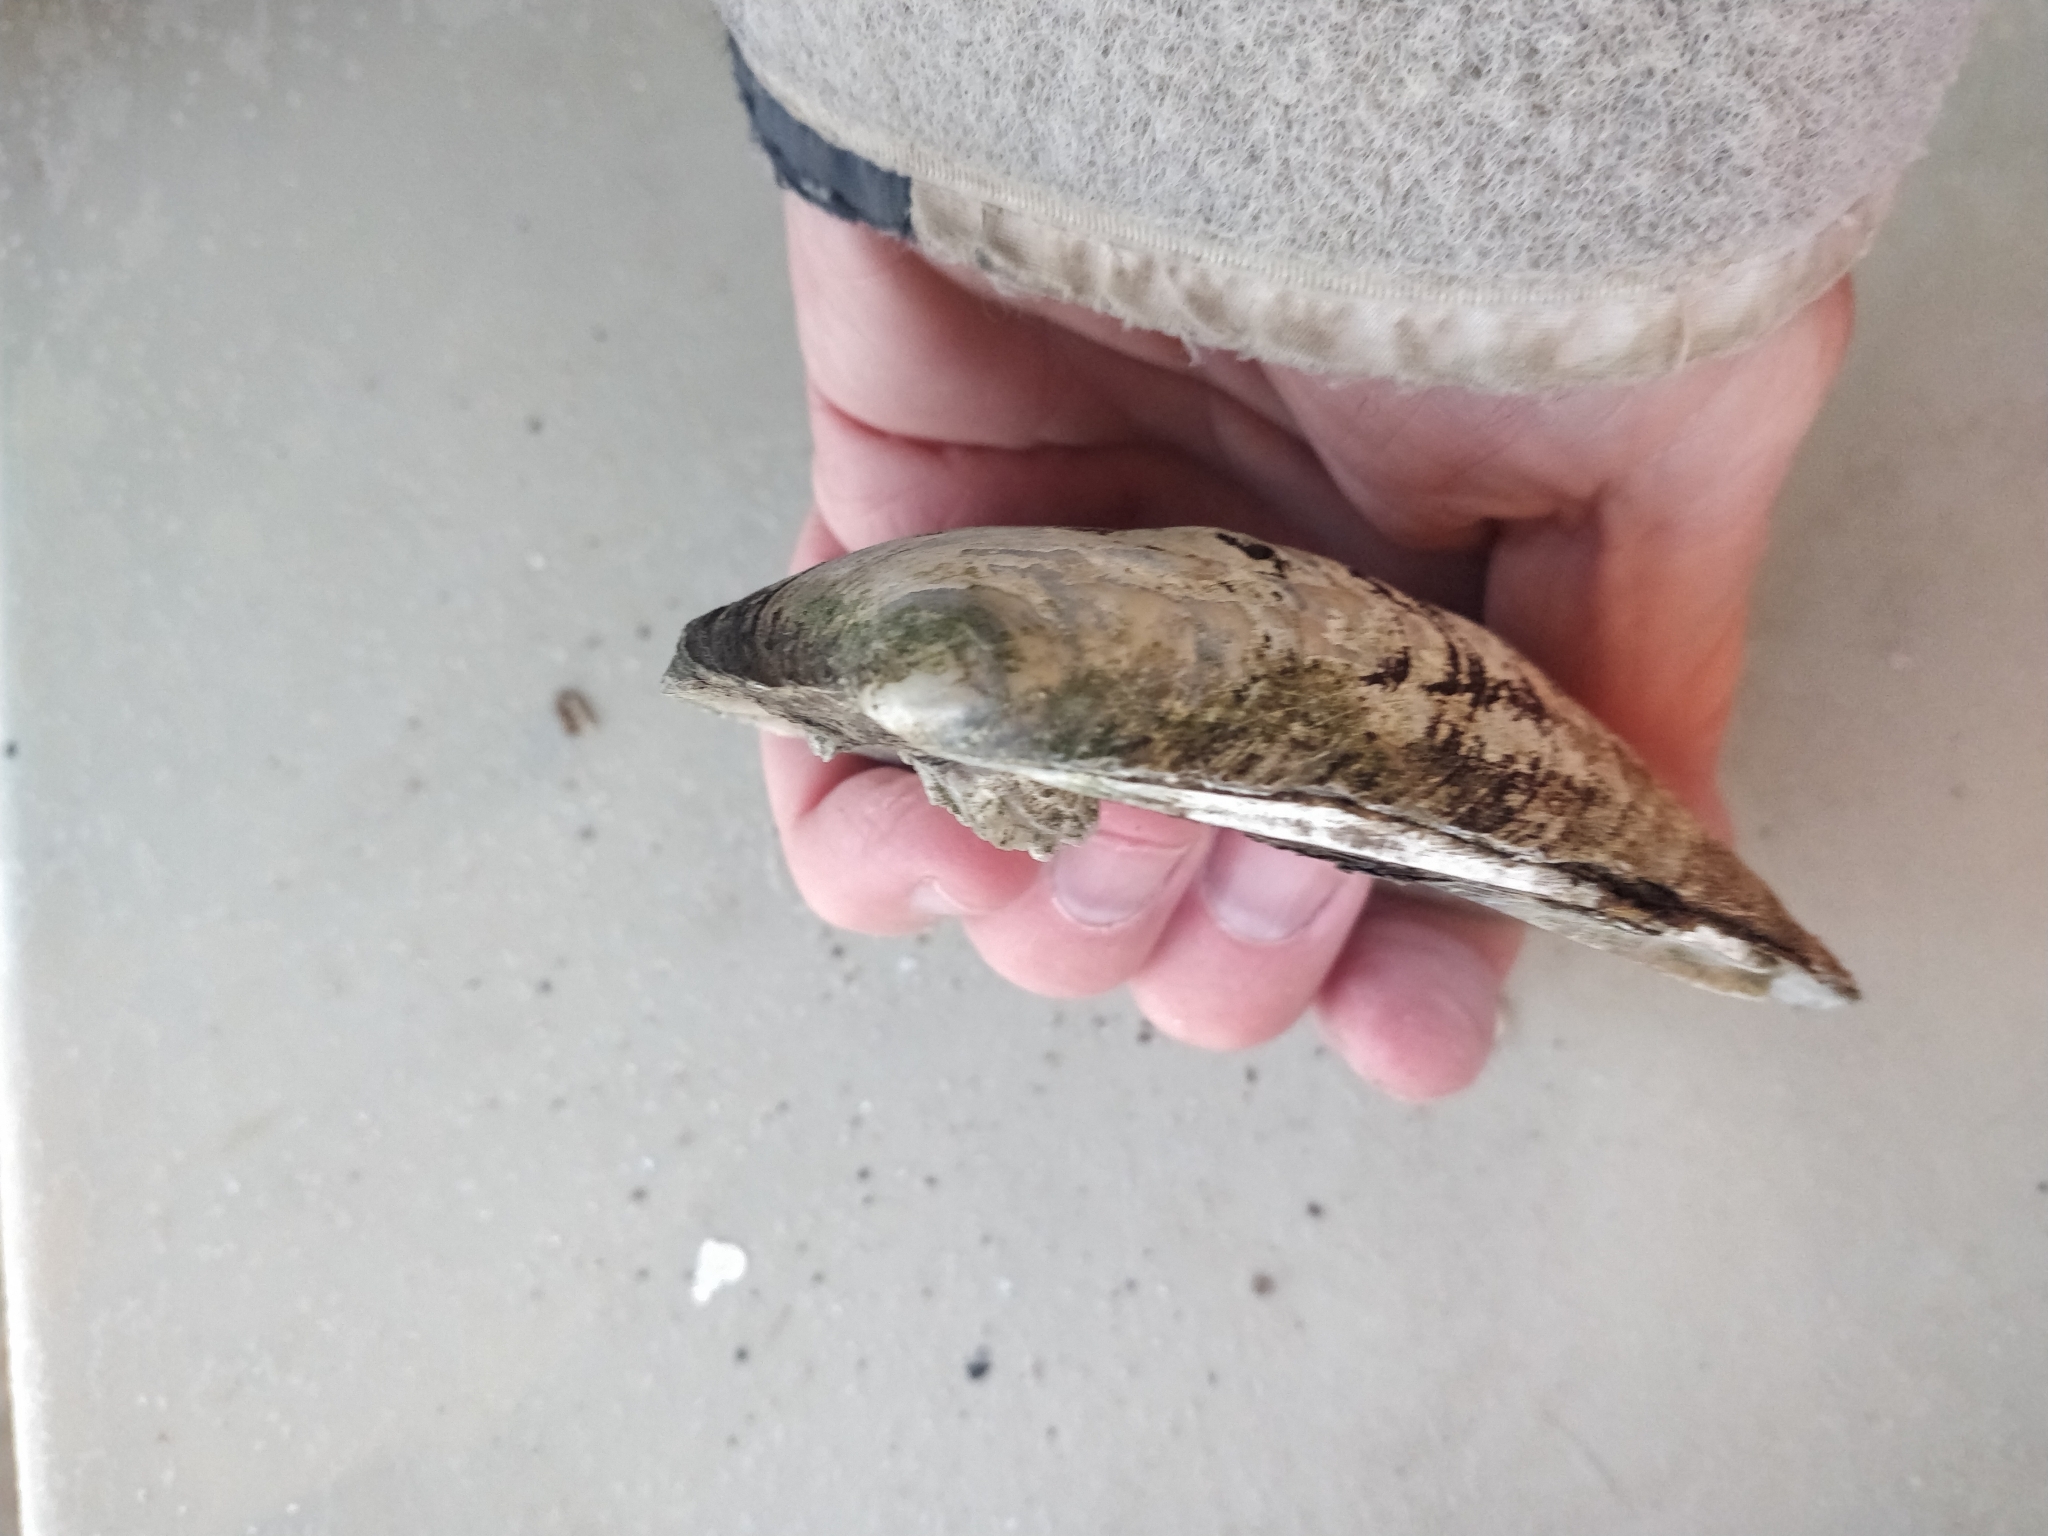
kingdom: Animalia
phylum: Mollusca
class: Bivalvia
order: Unionida
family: Unionidae
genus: Amblema
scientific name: Amblema plicata
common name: Threeridge
